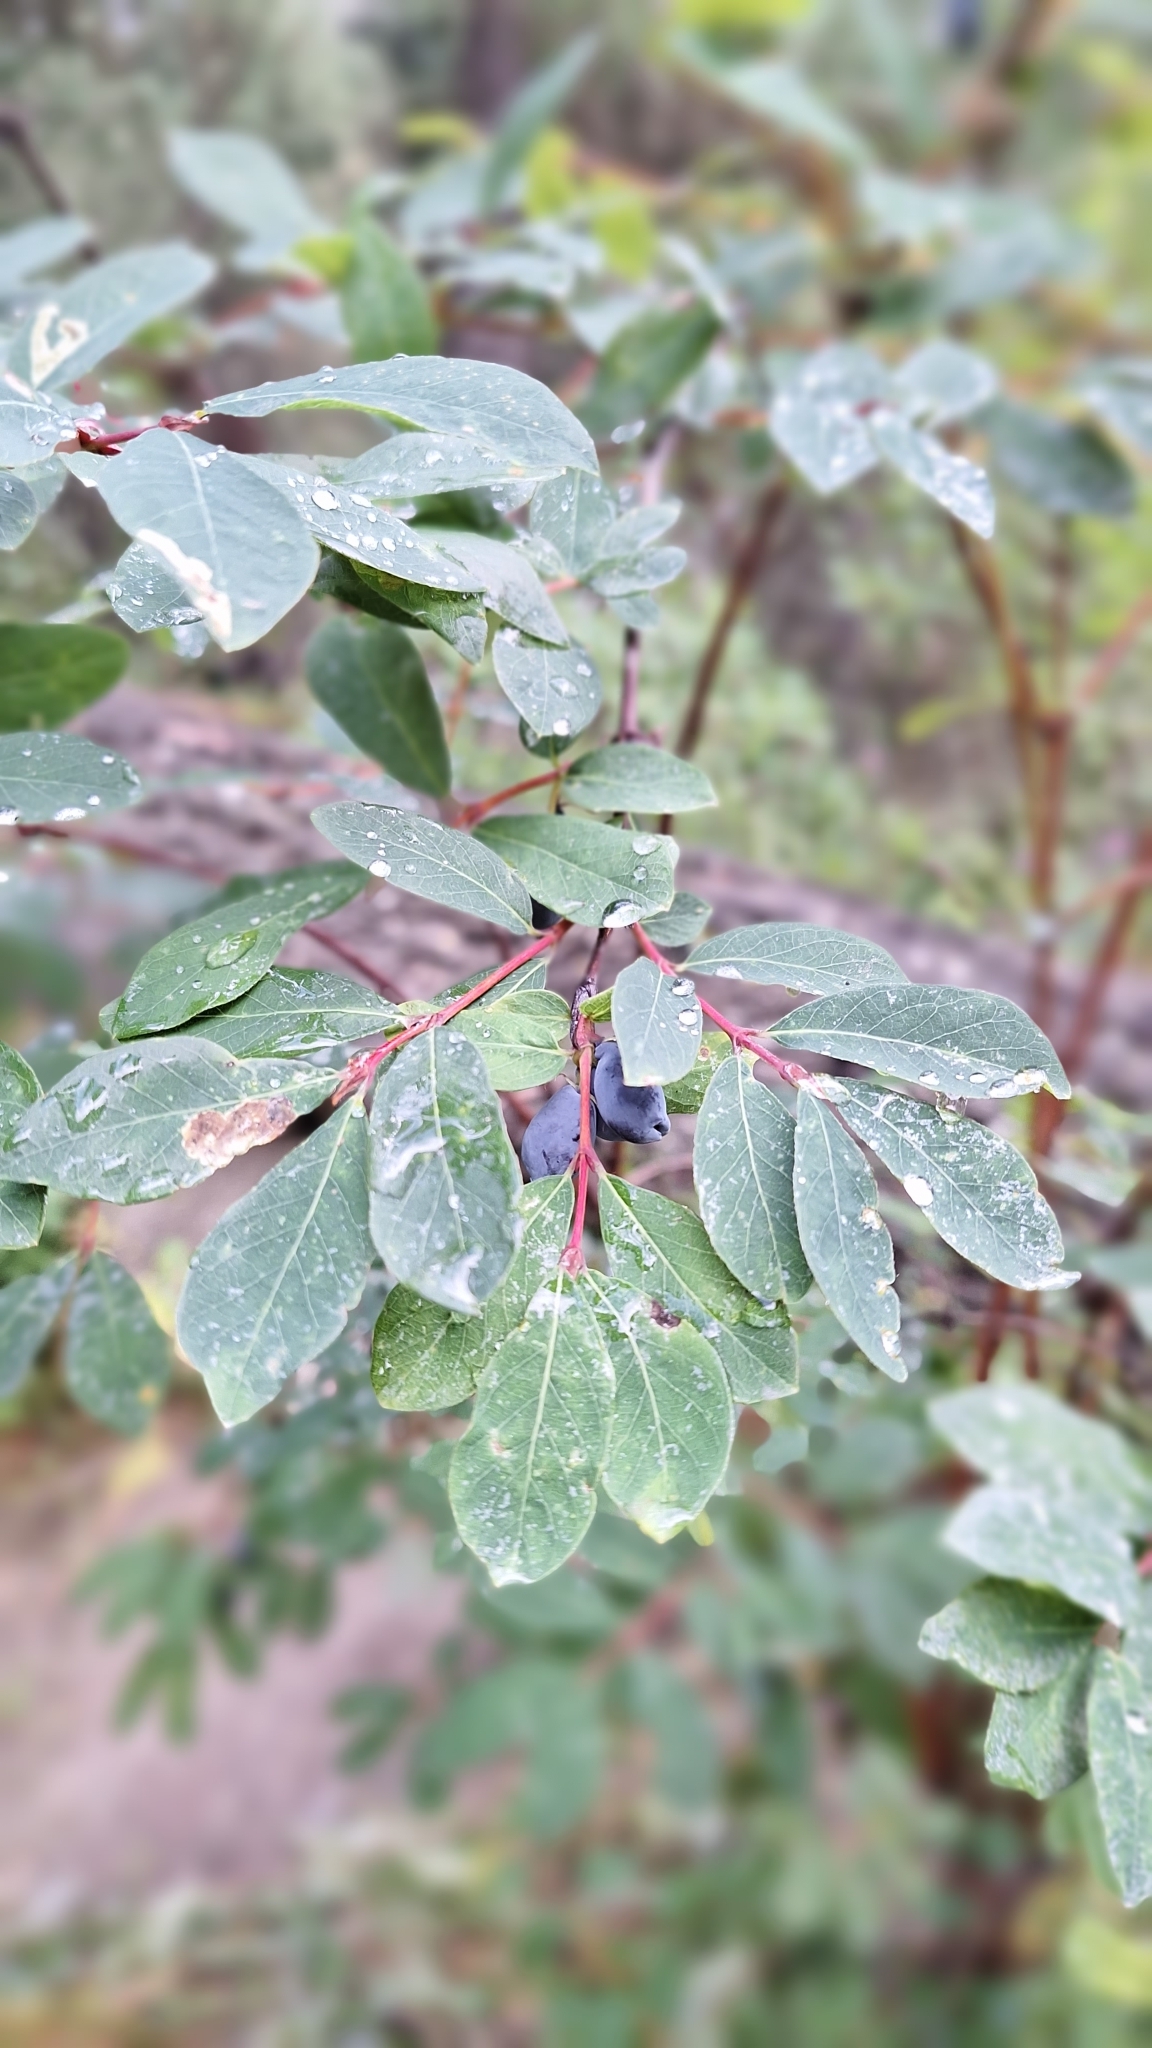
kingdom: Plantae
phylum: Tracheophyta
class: Magnoliopsida
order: Dipsacales
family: Caprifoliaceae
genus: Lonicera
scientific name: Lonicera caerulea
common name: Blue honeysuckle
